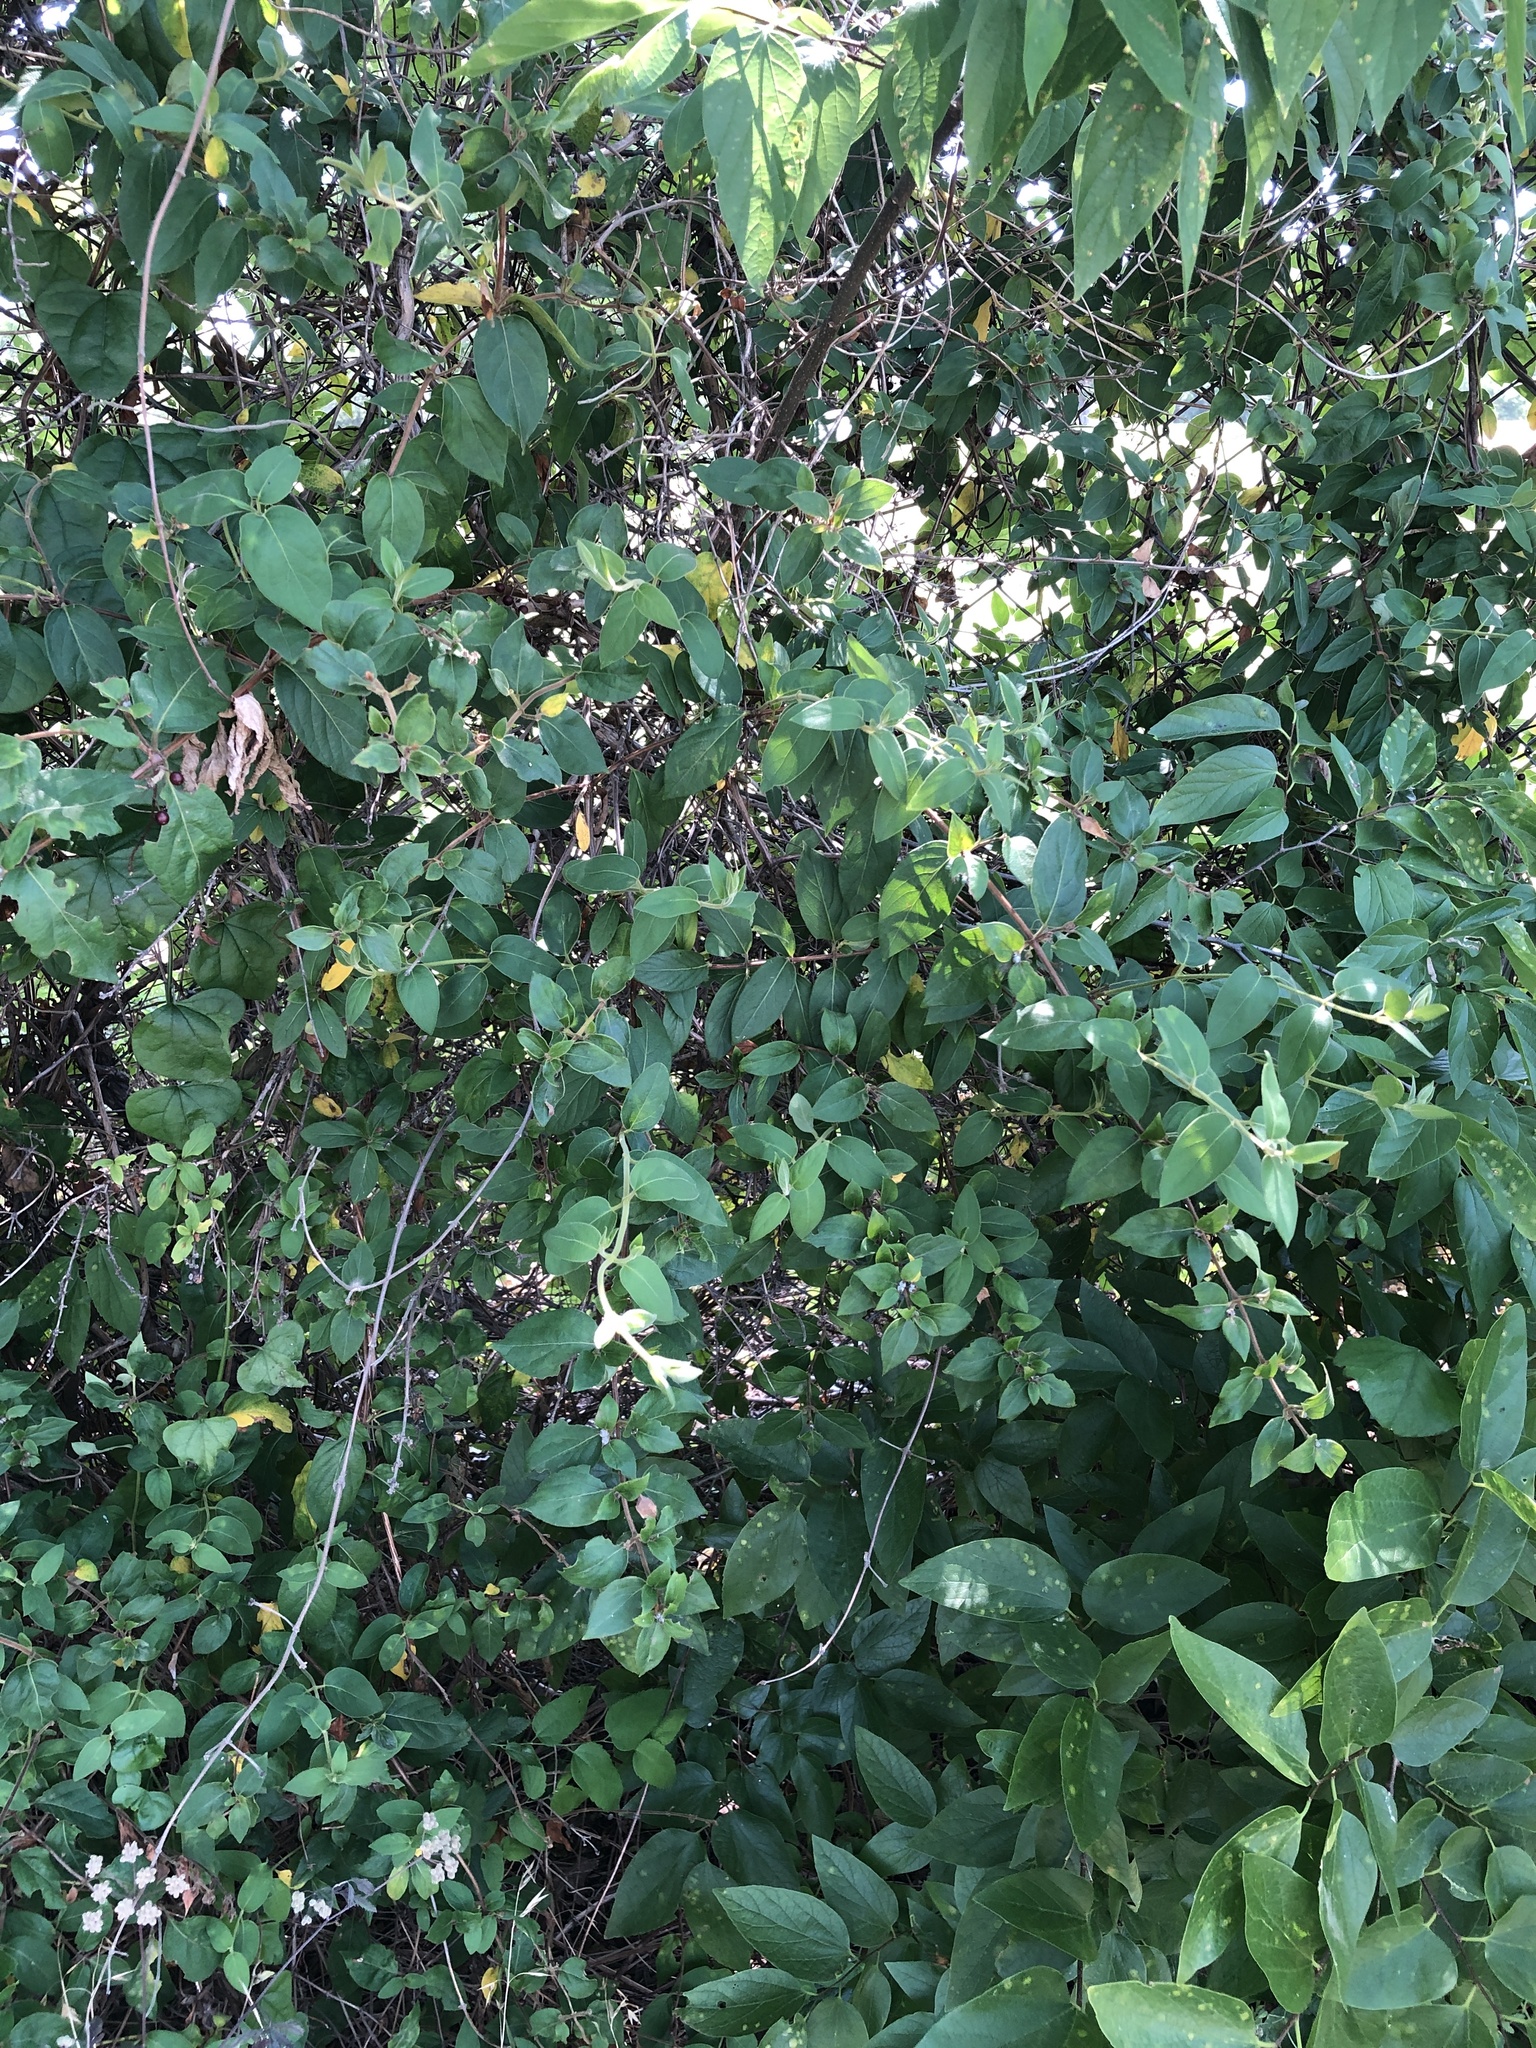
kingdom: Plantae
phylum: Tracheophyta
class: Magnoliopsida
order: Dipsacales
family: Caprifoliaceae
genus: Lonicera
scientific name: Lonicera japonica
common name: Japanese honeysuckle
